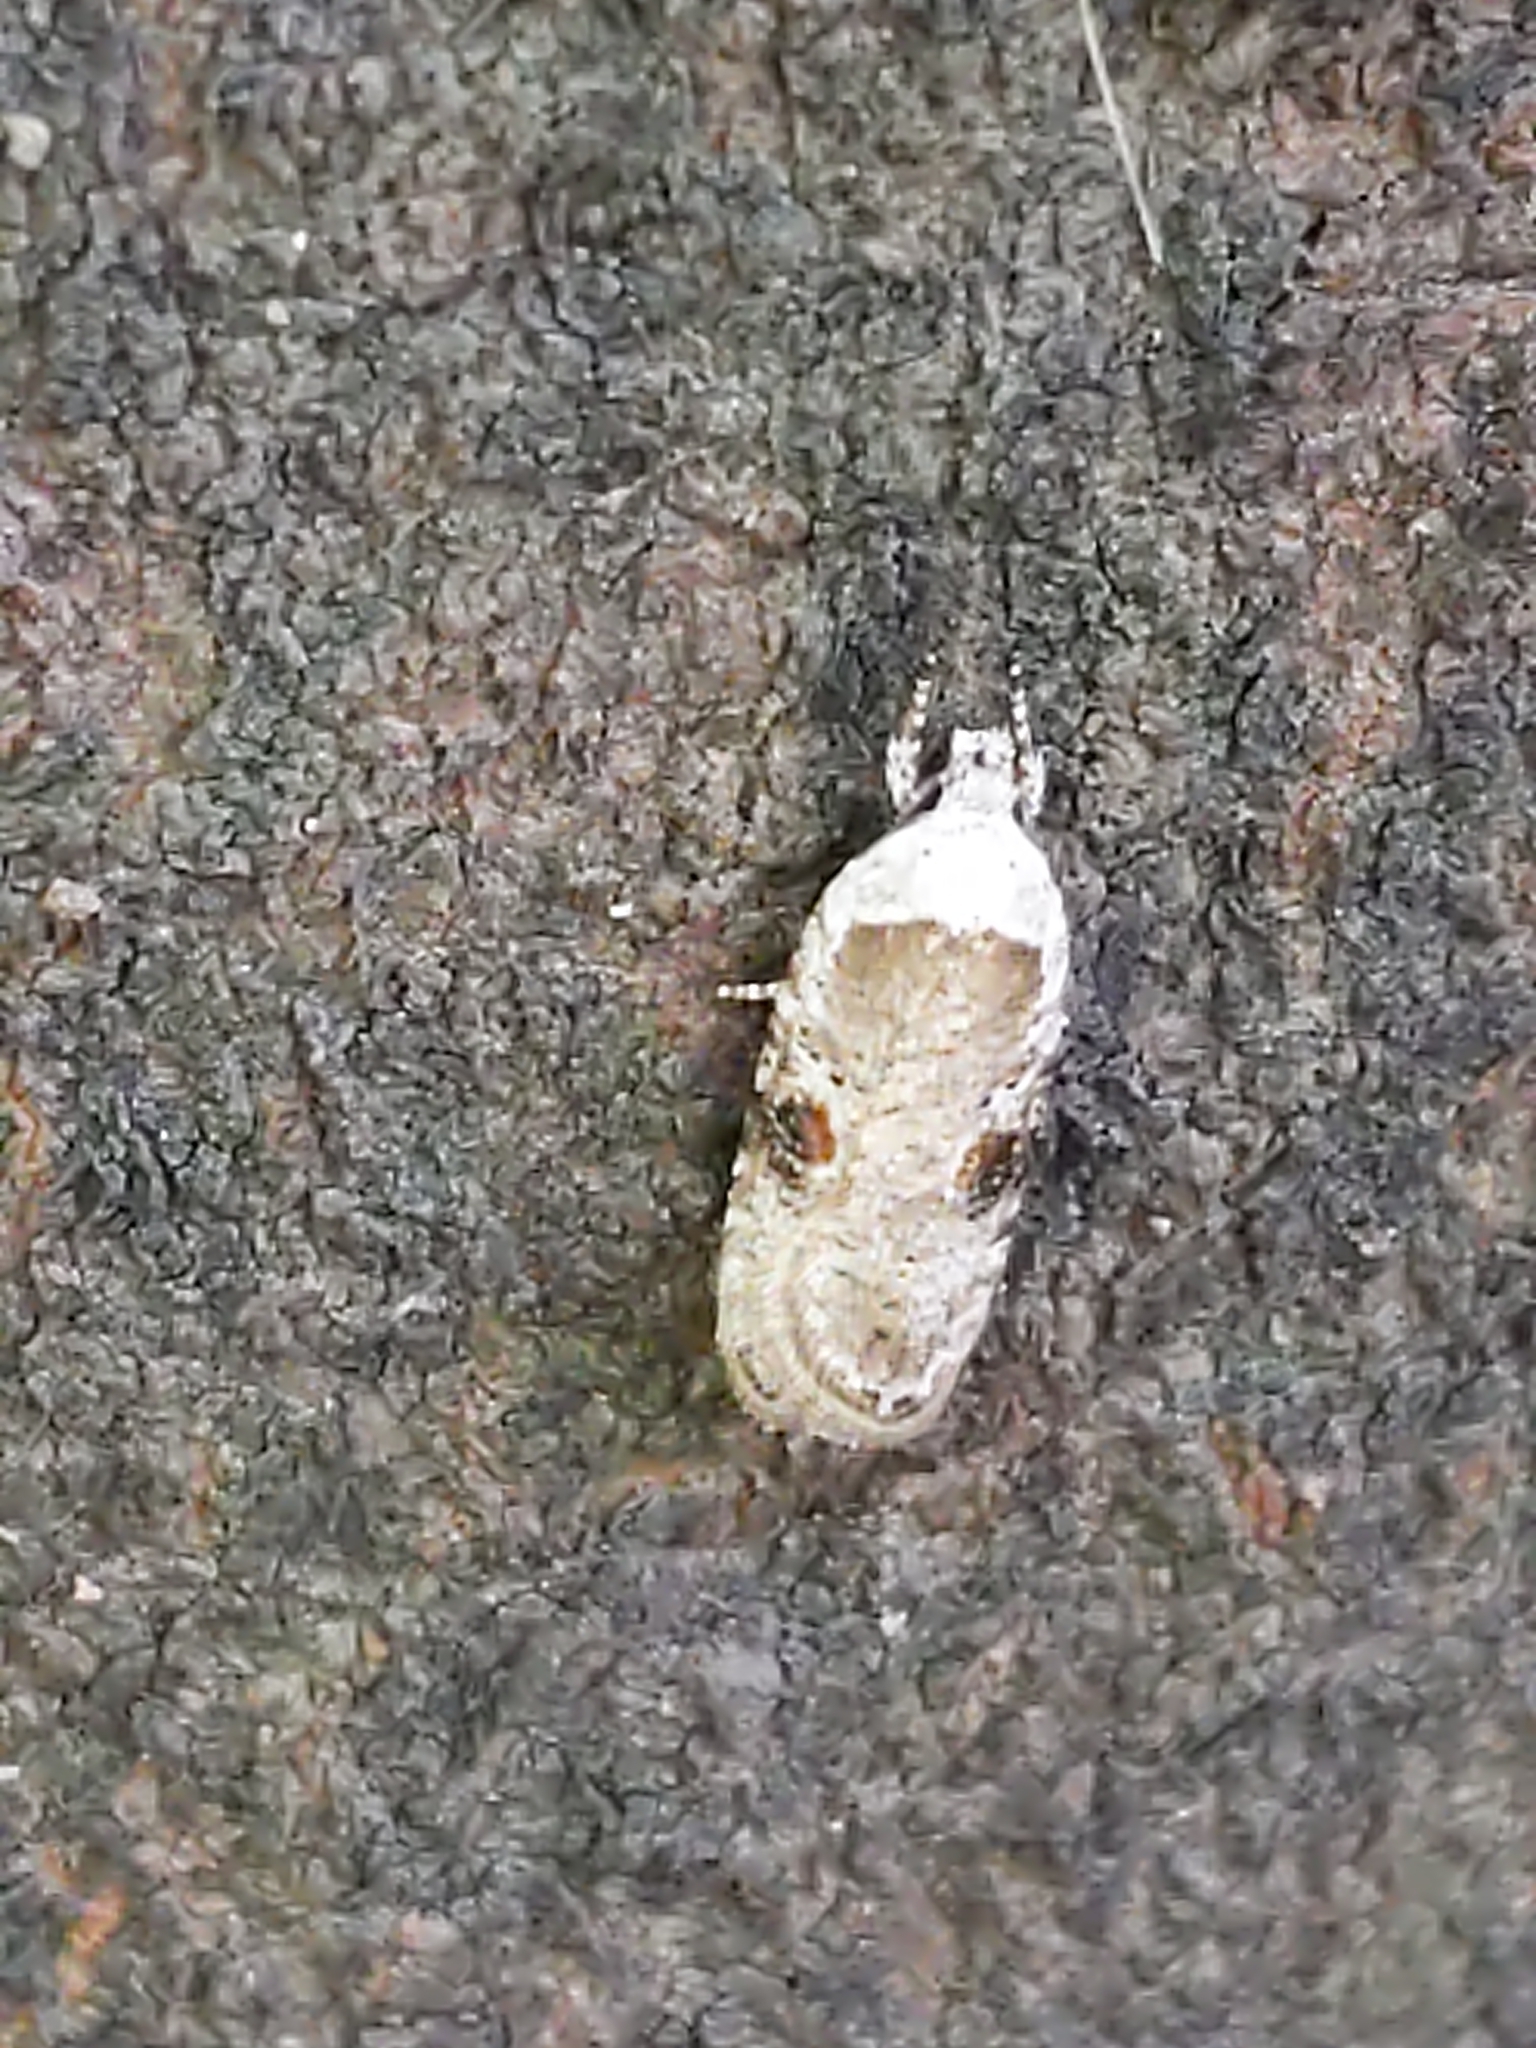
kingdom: Animalia
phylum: Arthropoda
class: Insecta
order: Lepidoptera
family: Depressariidae
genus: Agonopterix
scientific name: Agonopterix alstroemeriana
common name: Moth
